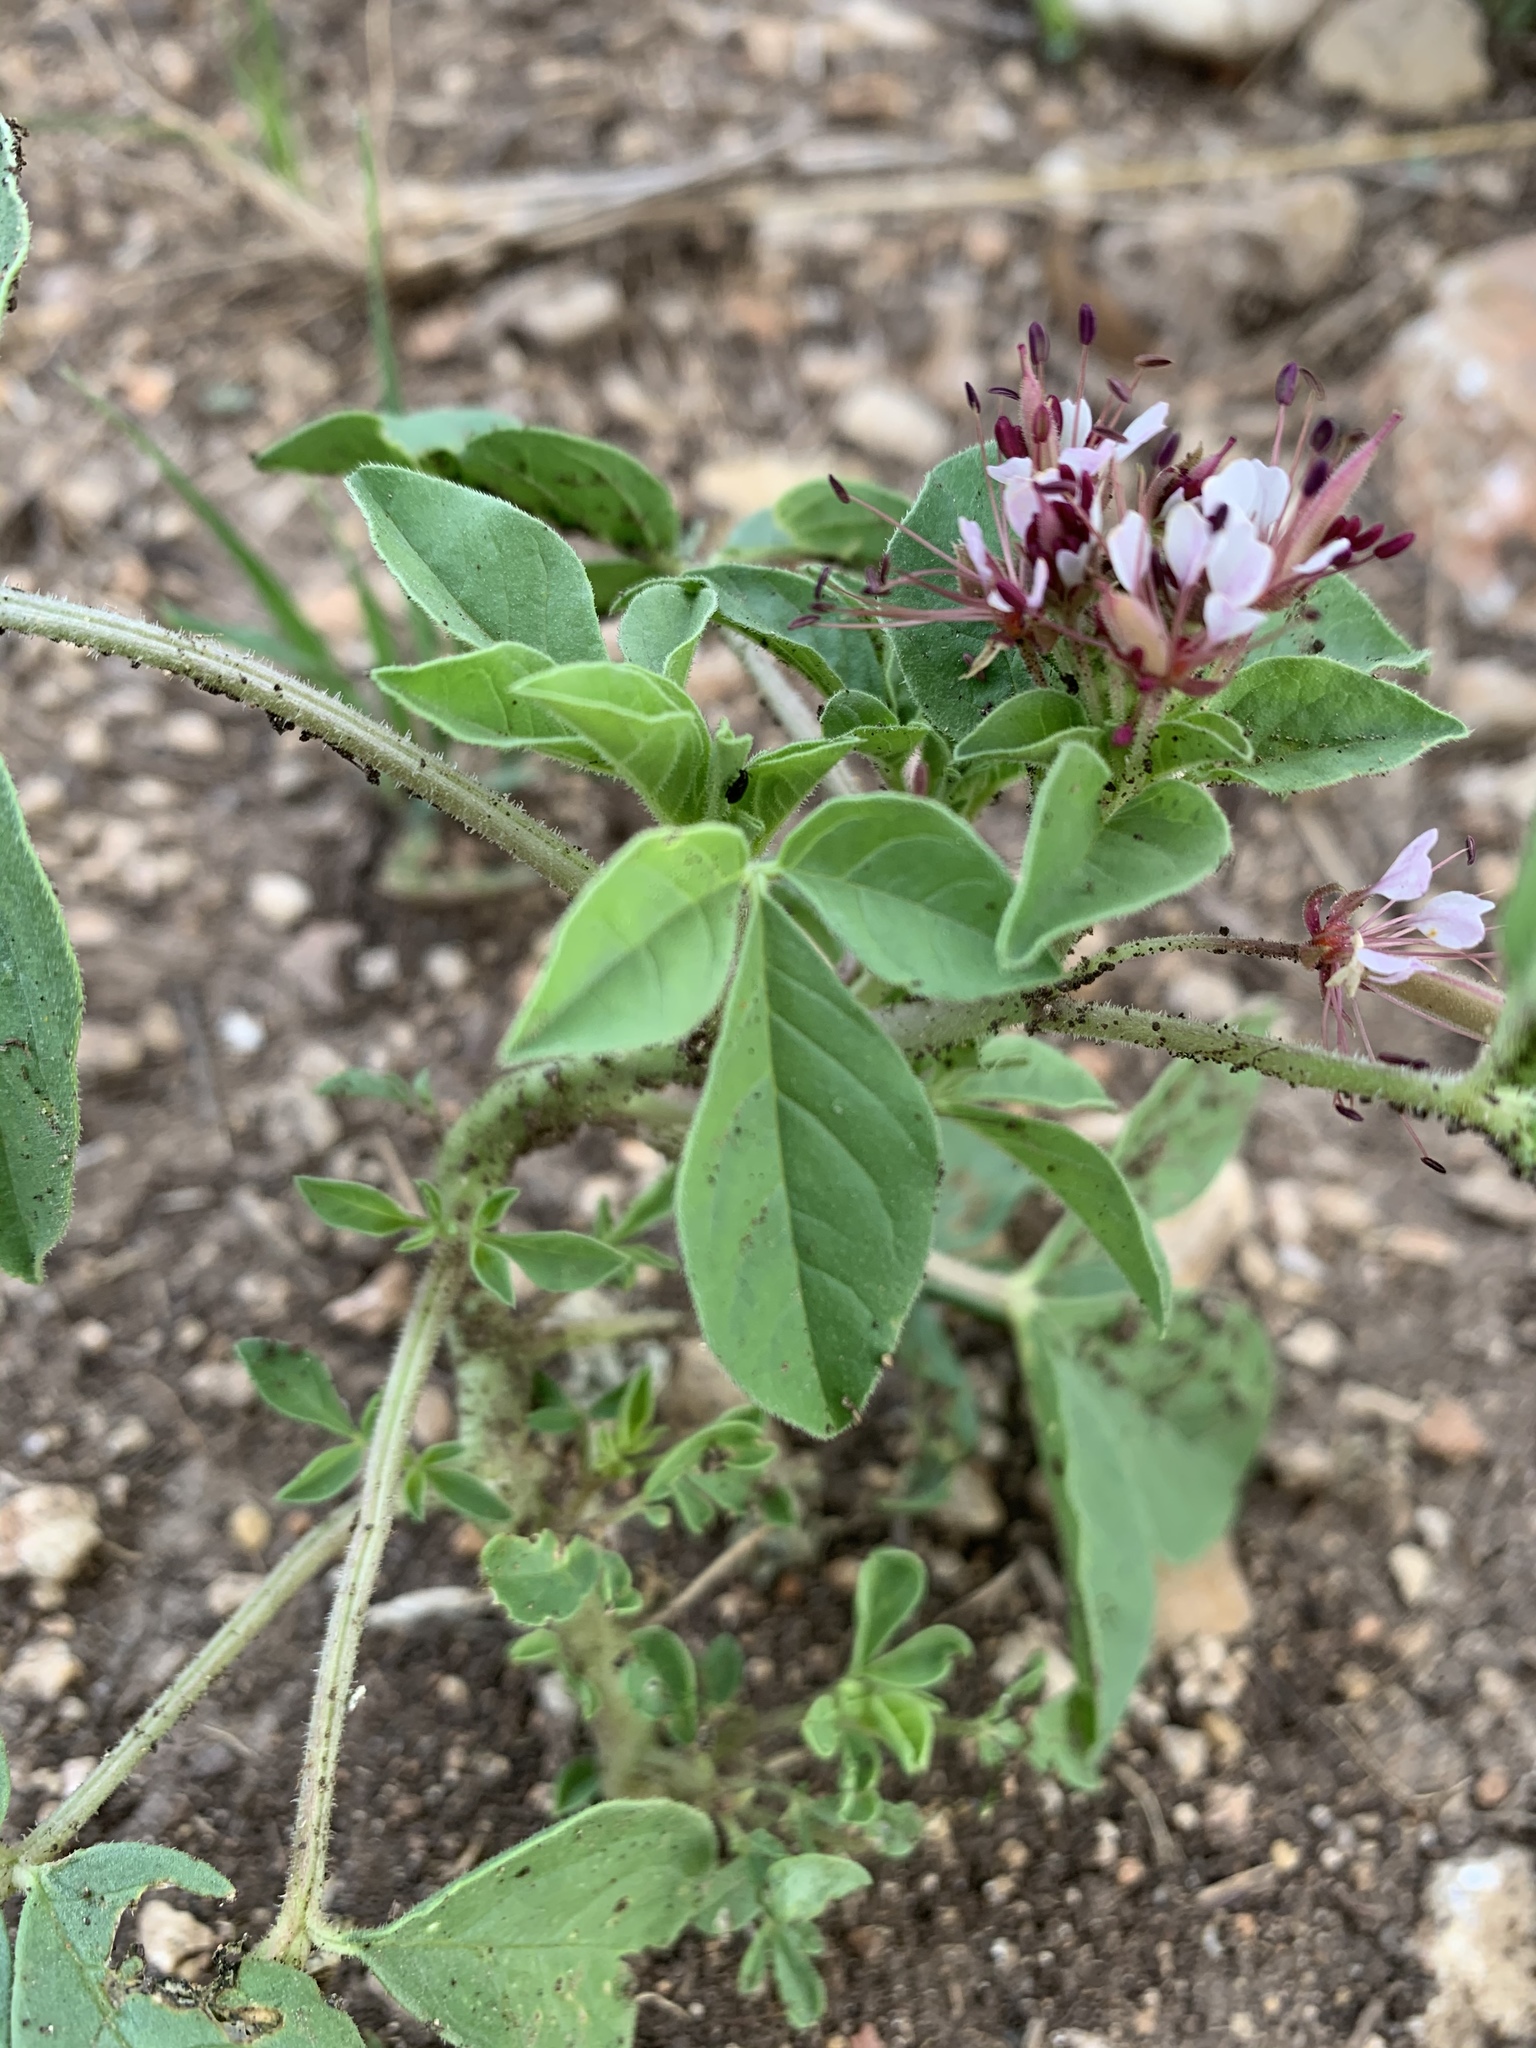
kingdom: Plantae
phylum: Tracheophyta
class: Magnoliopsida
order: Brassicales
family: Cleomaceae
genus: Polanisia
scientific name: Polanisia dodecandra
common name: Clammyweed
